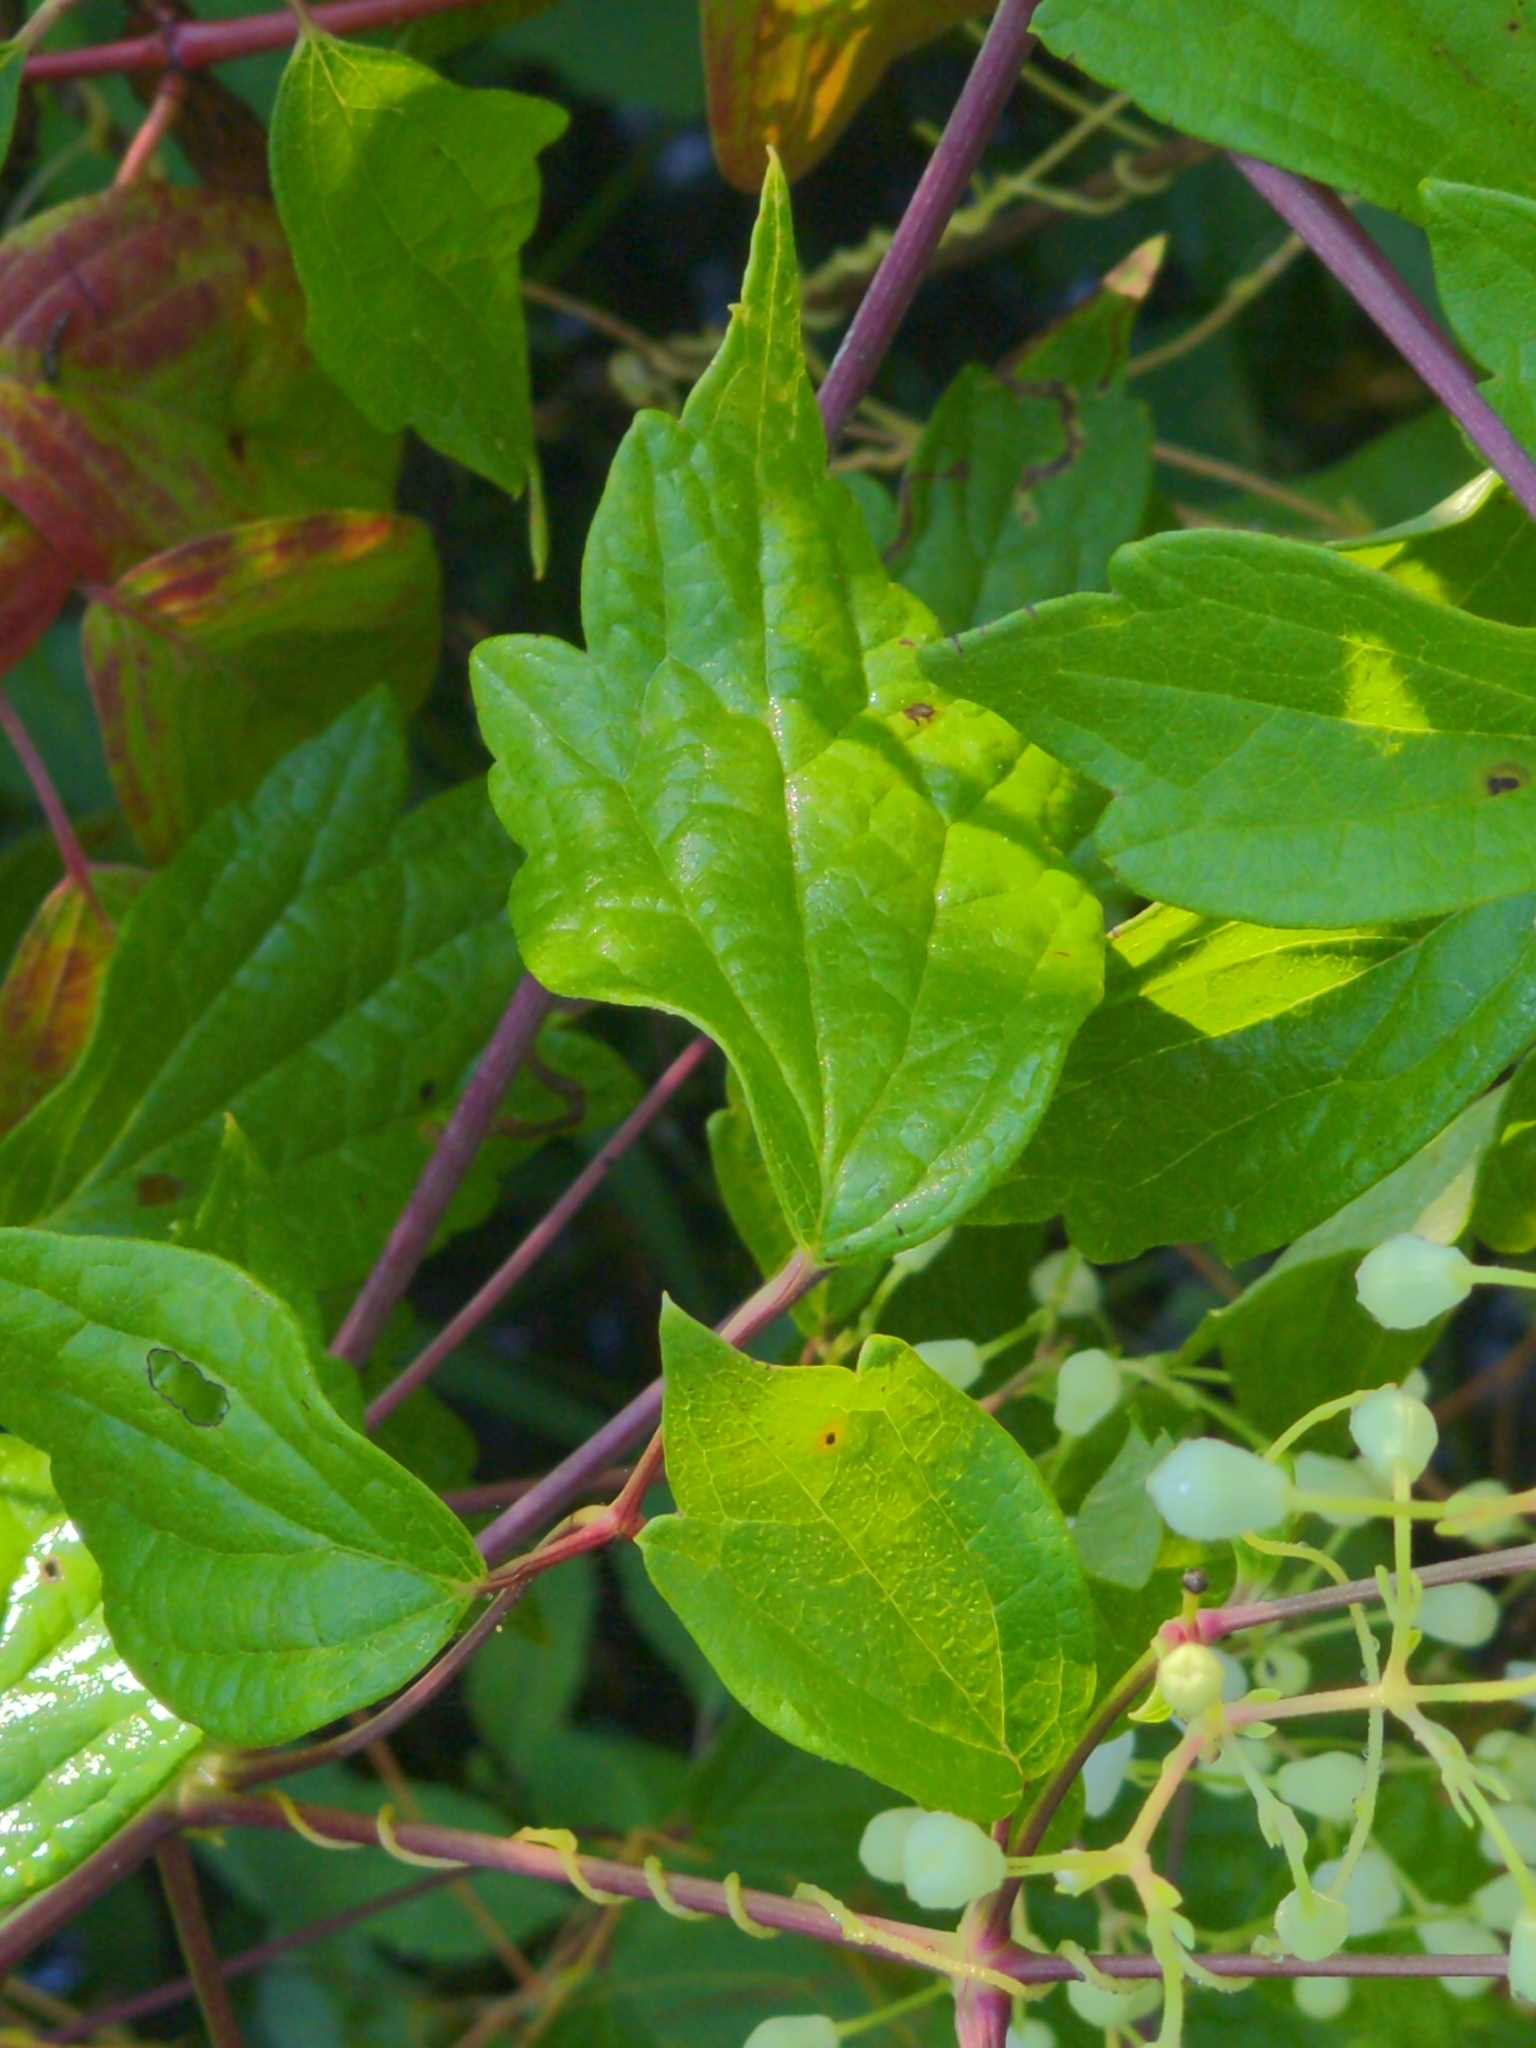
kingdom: Plantae
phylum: Tracheophyta
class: Magnoliopsida
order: Ranunculales
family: Ranunculaceae
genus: Clematis
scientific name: Clematis virginiana
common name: Virgin's-bower
